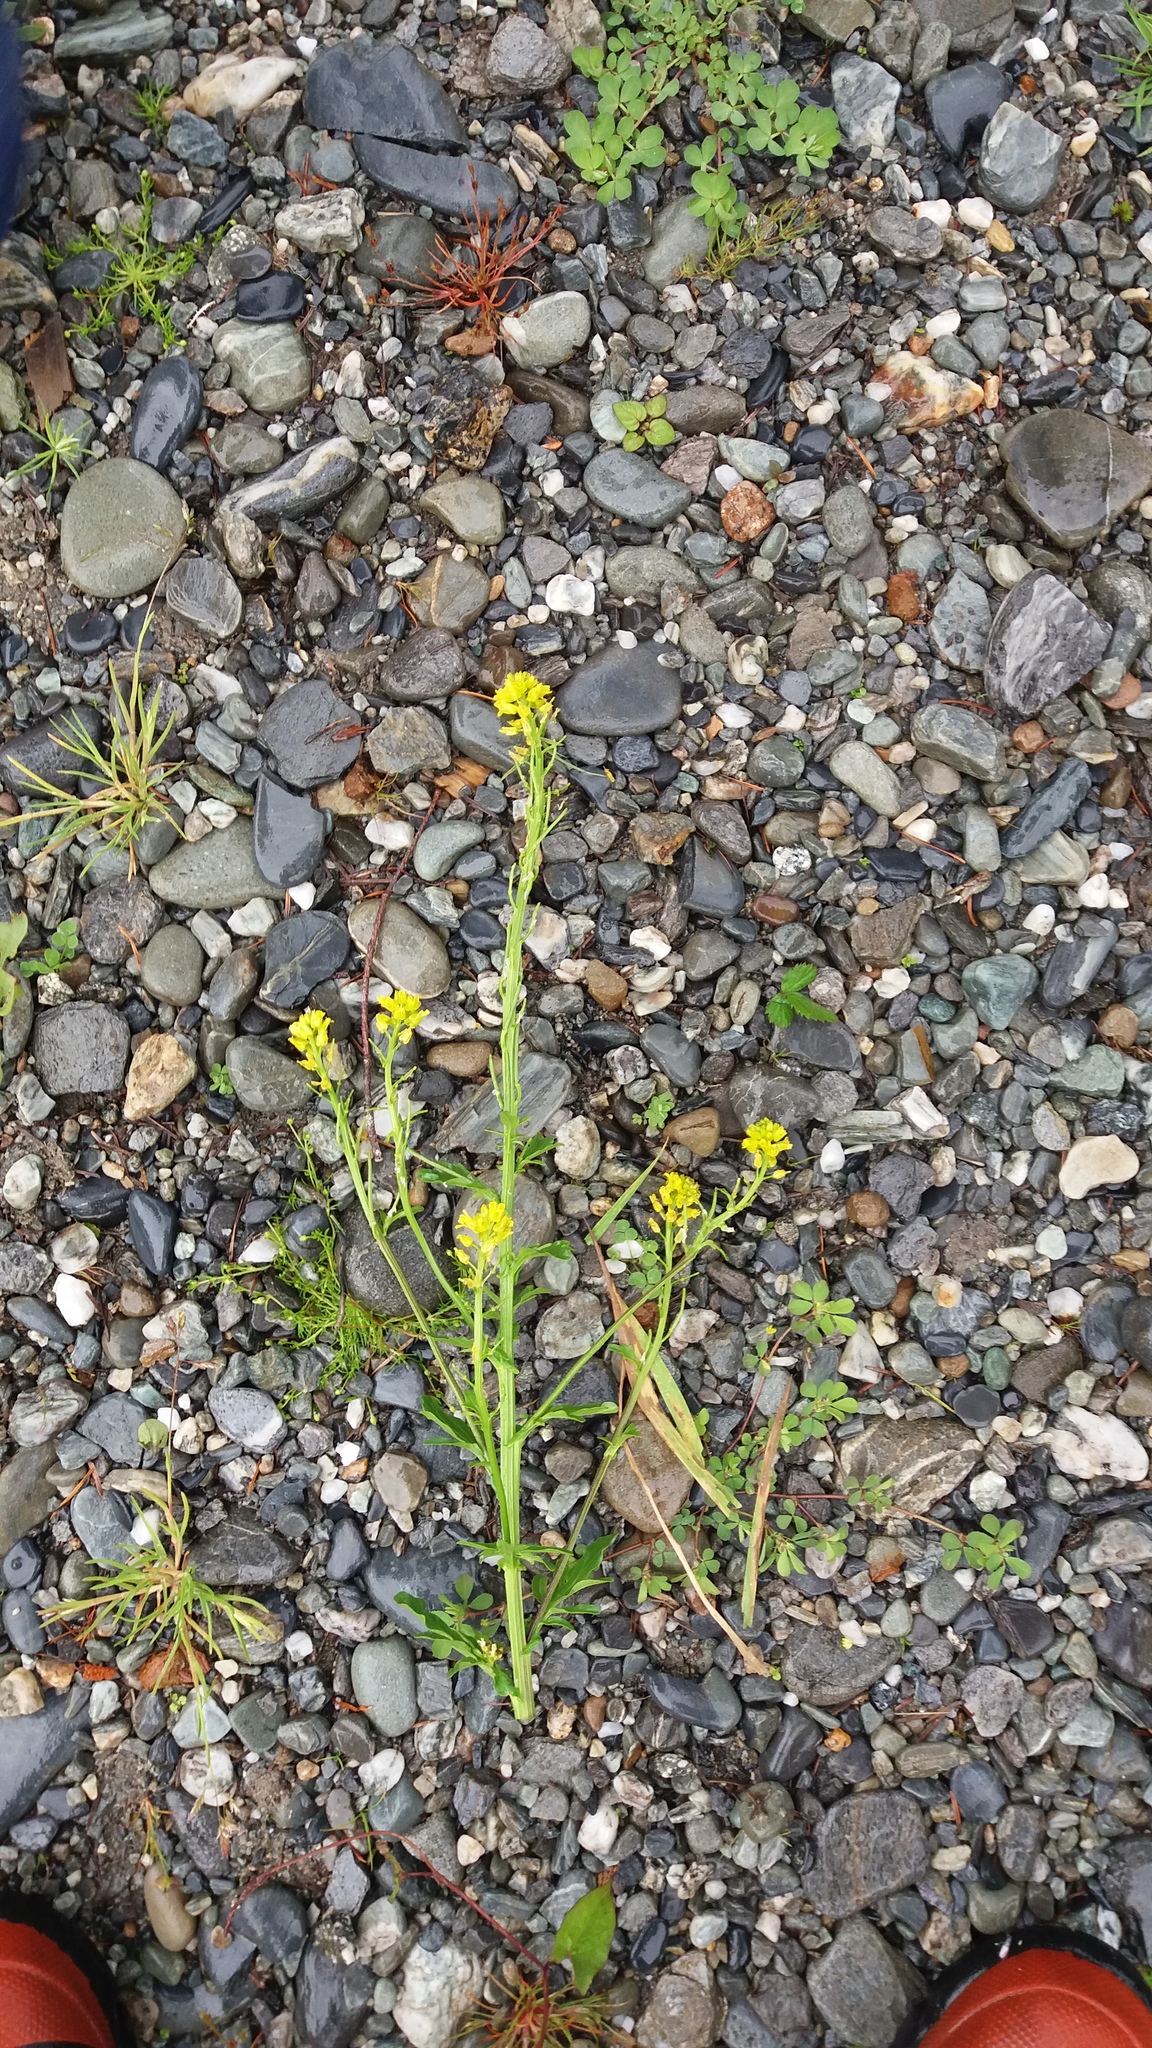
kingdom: Plantae
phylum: Tracheophyta
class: Magnoliopsida
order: Brassicales
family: Brassicaceae
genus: Brassica
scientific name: Brassica rapa
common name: Field mustard
